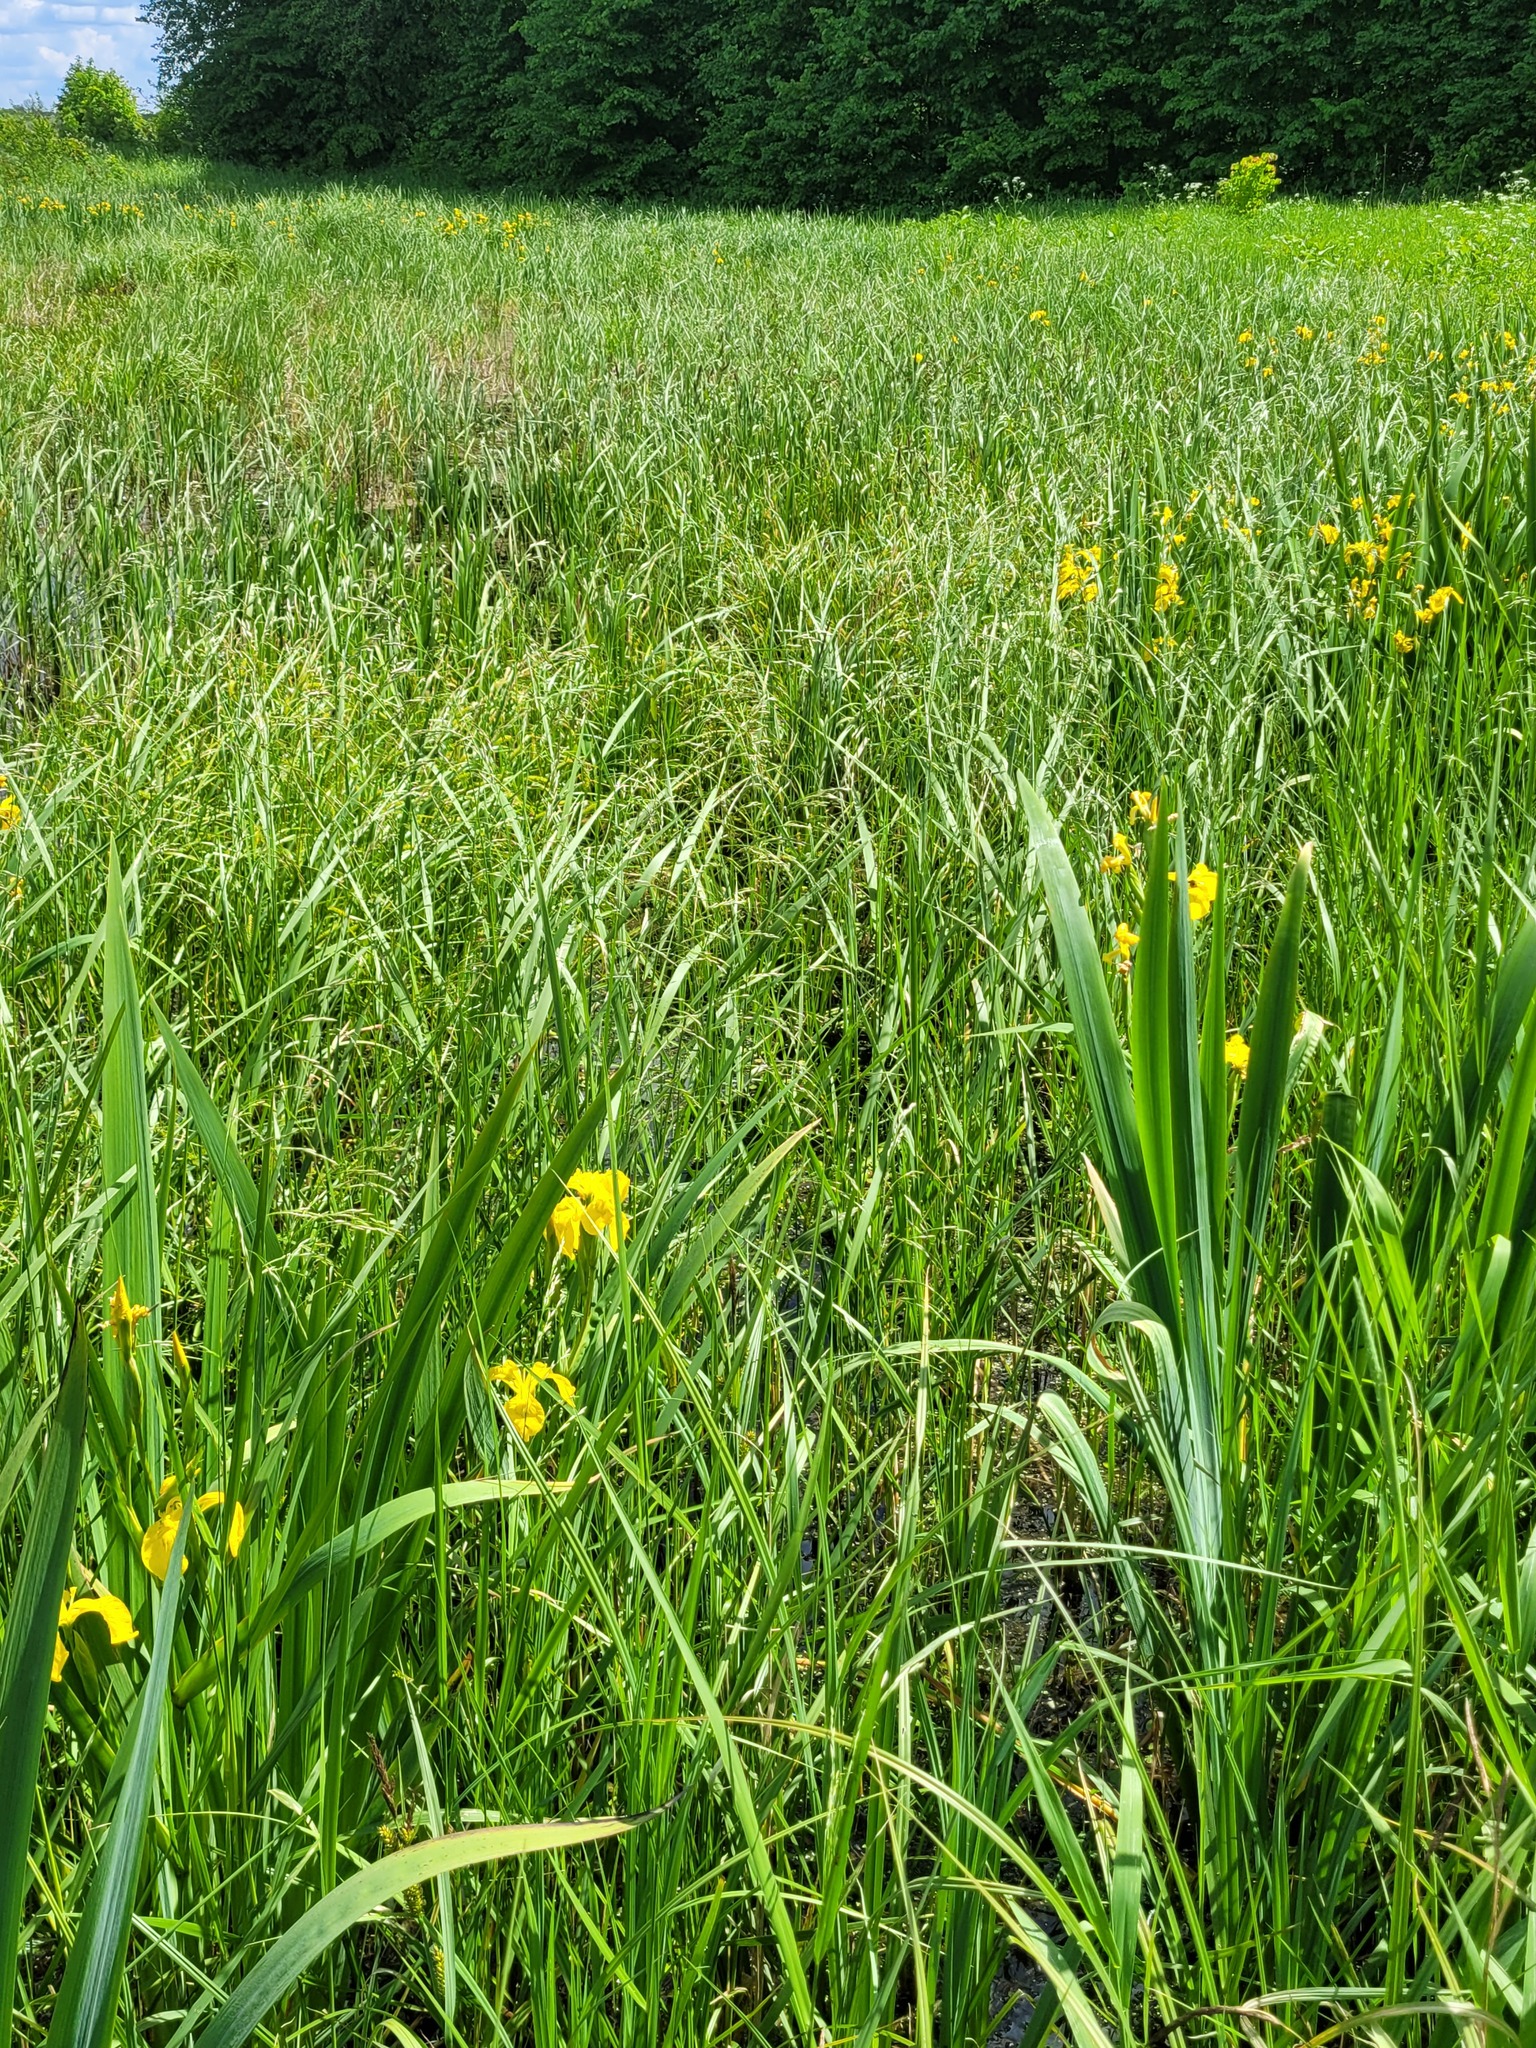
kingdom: Plantae
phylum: Tracheophyta
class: Liliopsida
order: Poales
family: Poaceae
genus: Scolochloa
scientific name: Scolochloa festucacea
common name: Common rivergrass
